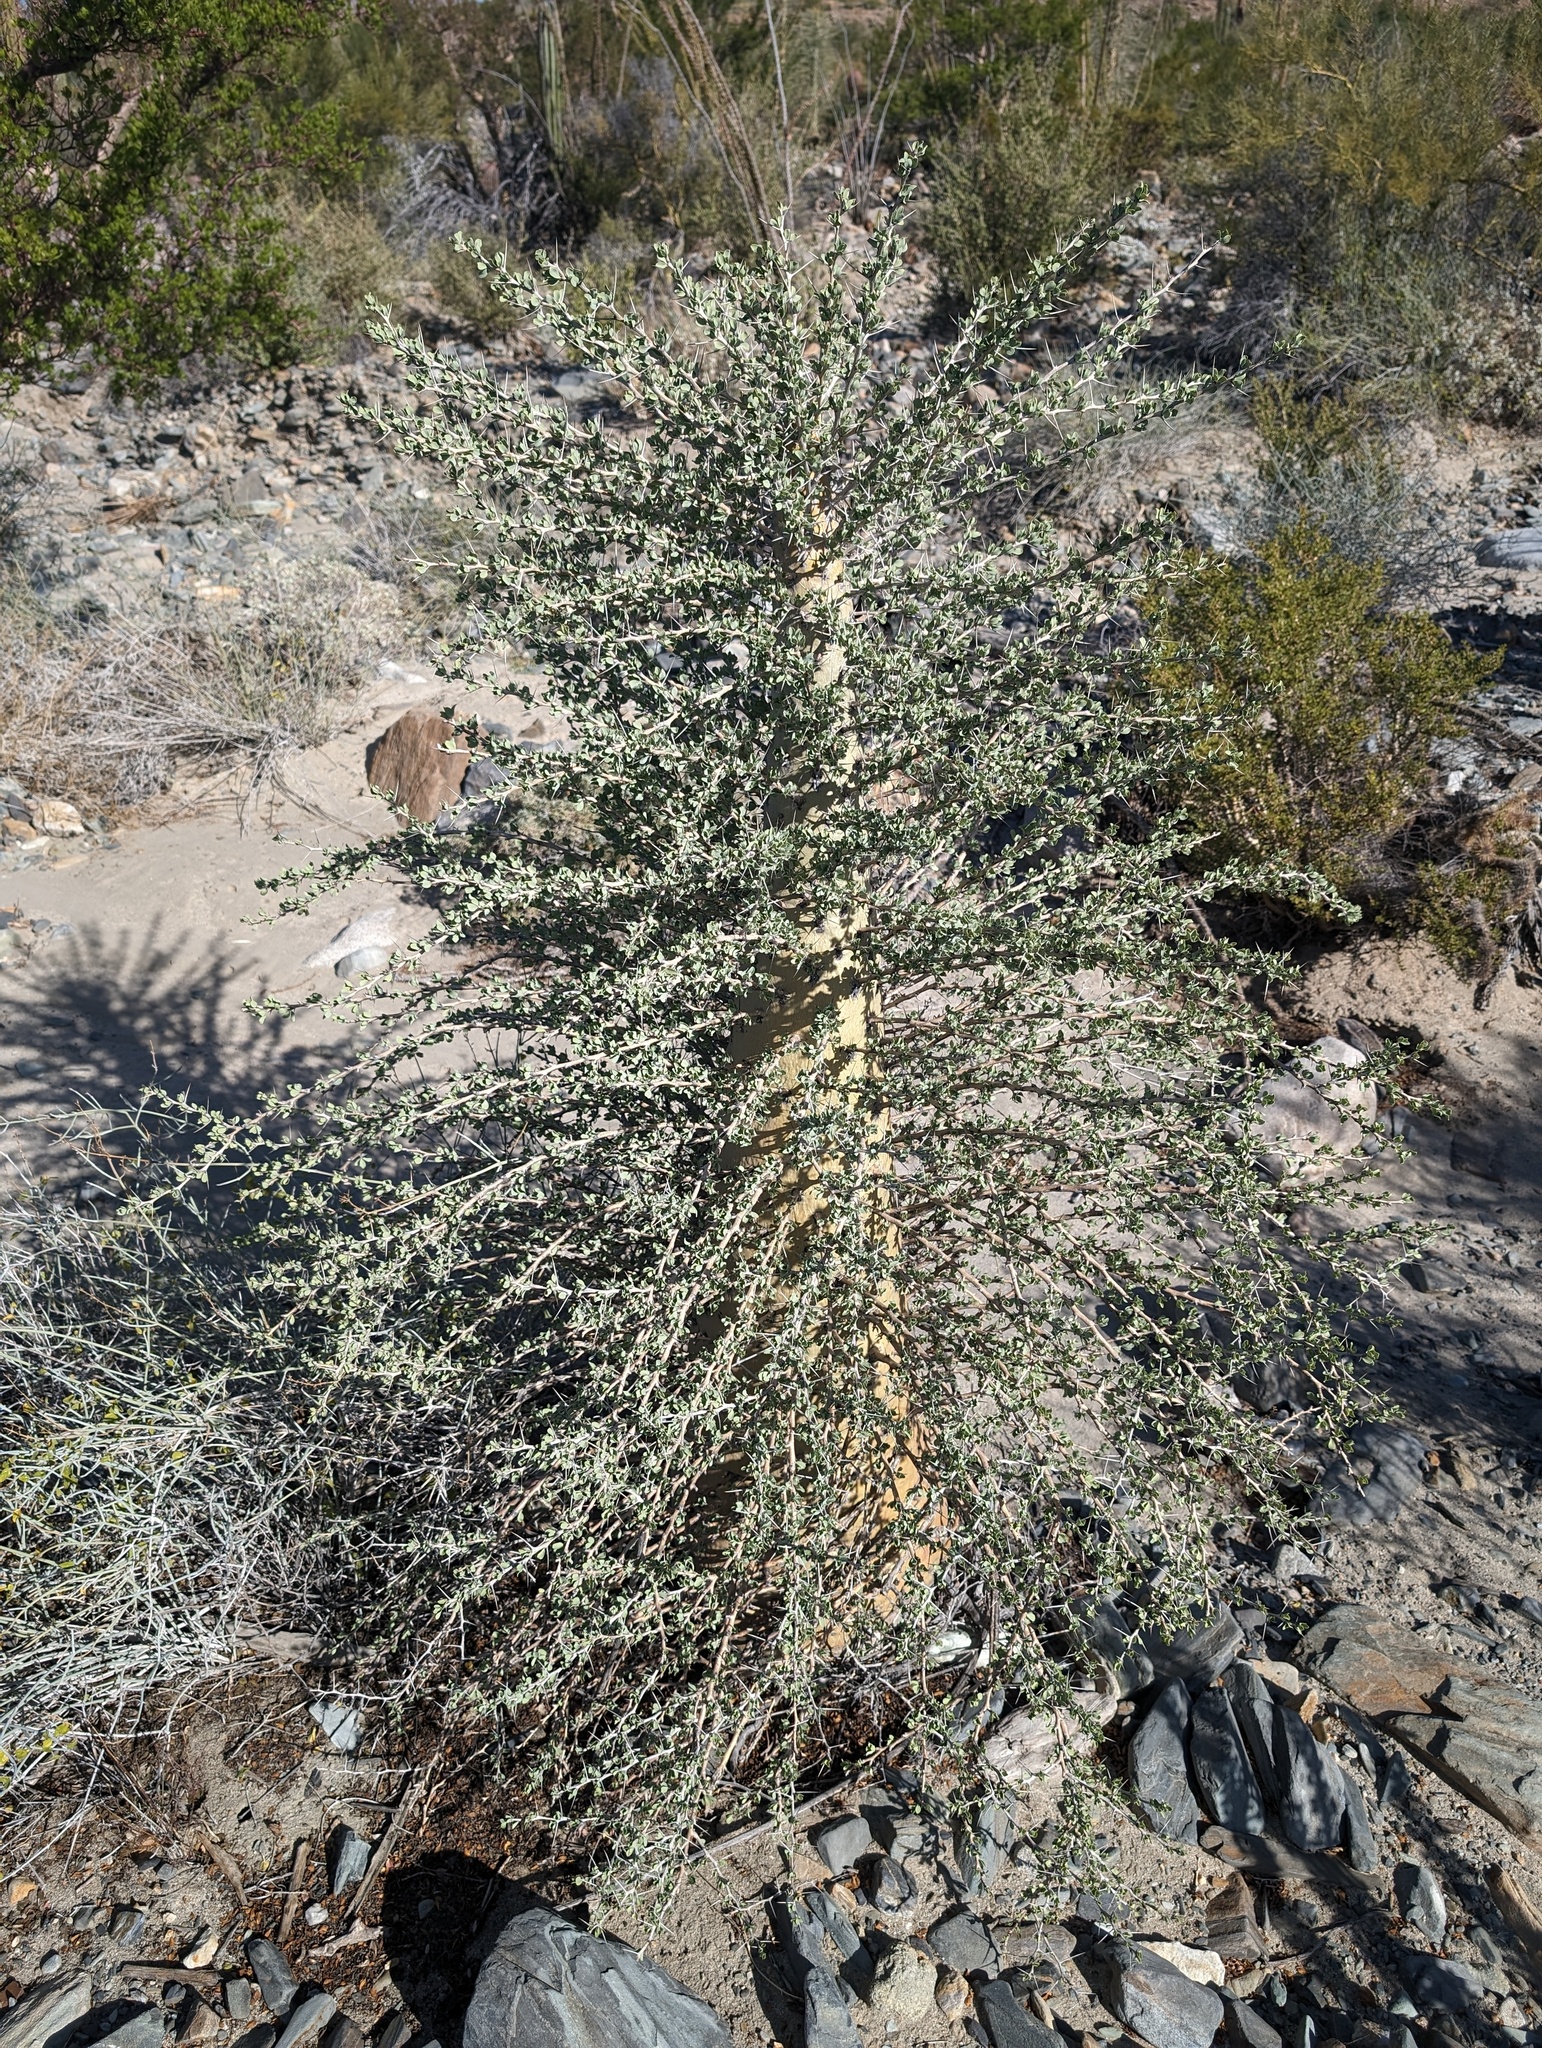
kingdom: Plantae
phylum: Tracheophyta
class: Magnoliopsida
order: Ericales
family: Fouquieriaceae
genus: Fouquieria
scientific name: Fouquieria columnaris
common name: Boojumtree
